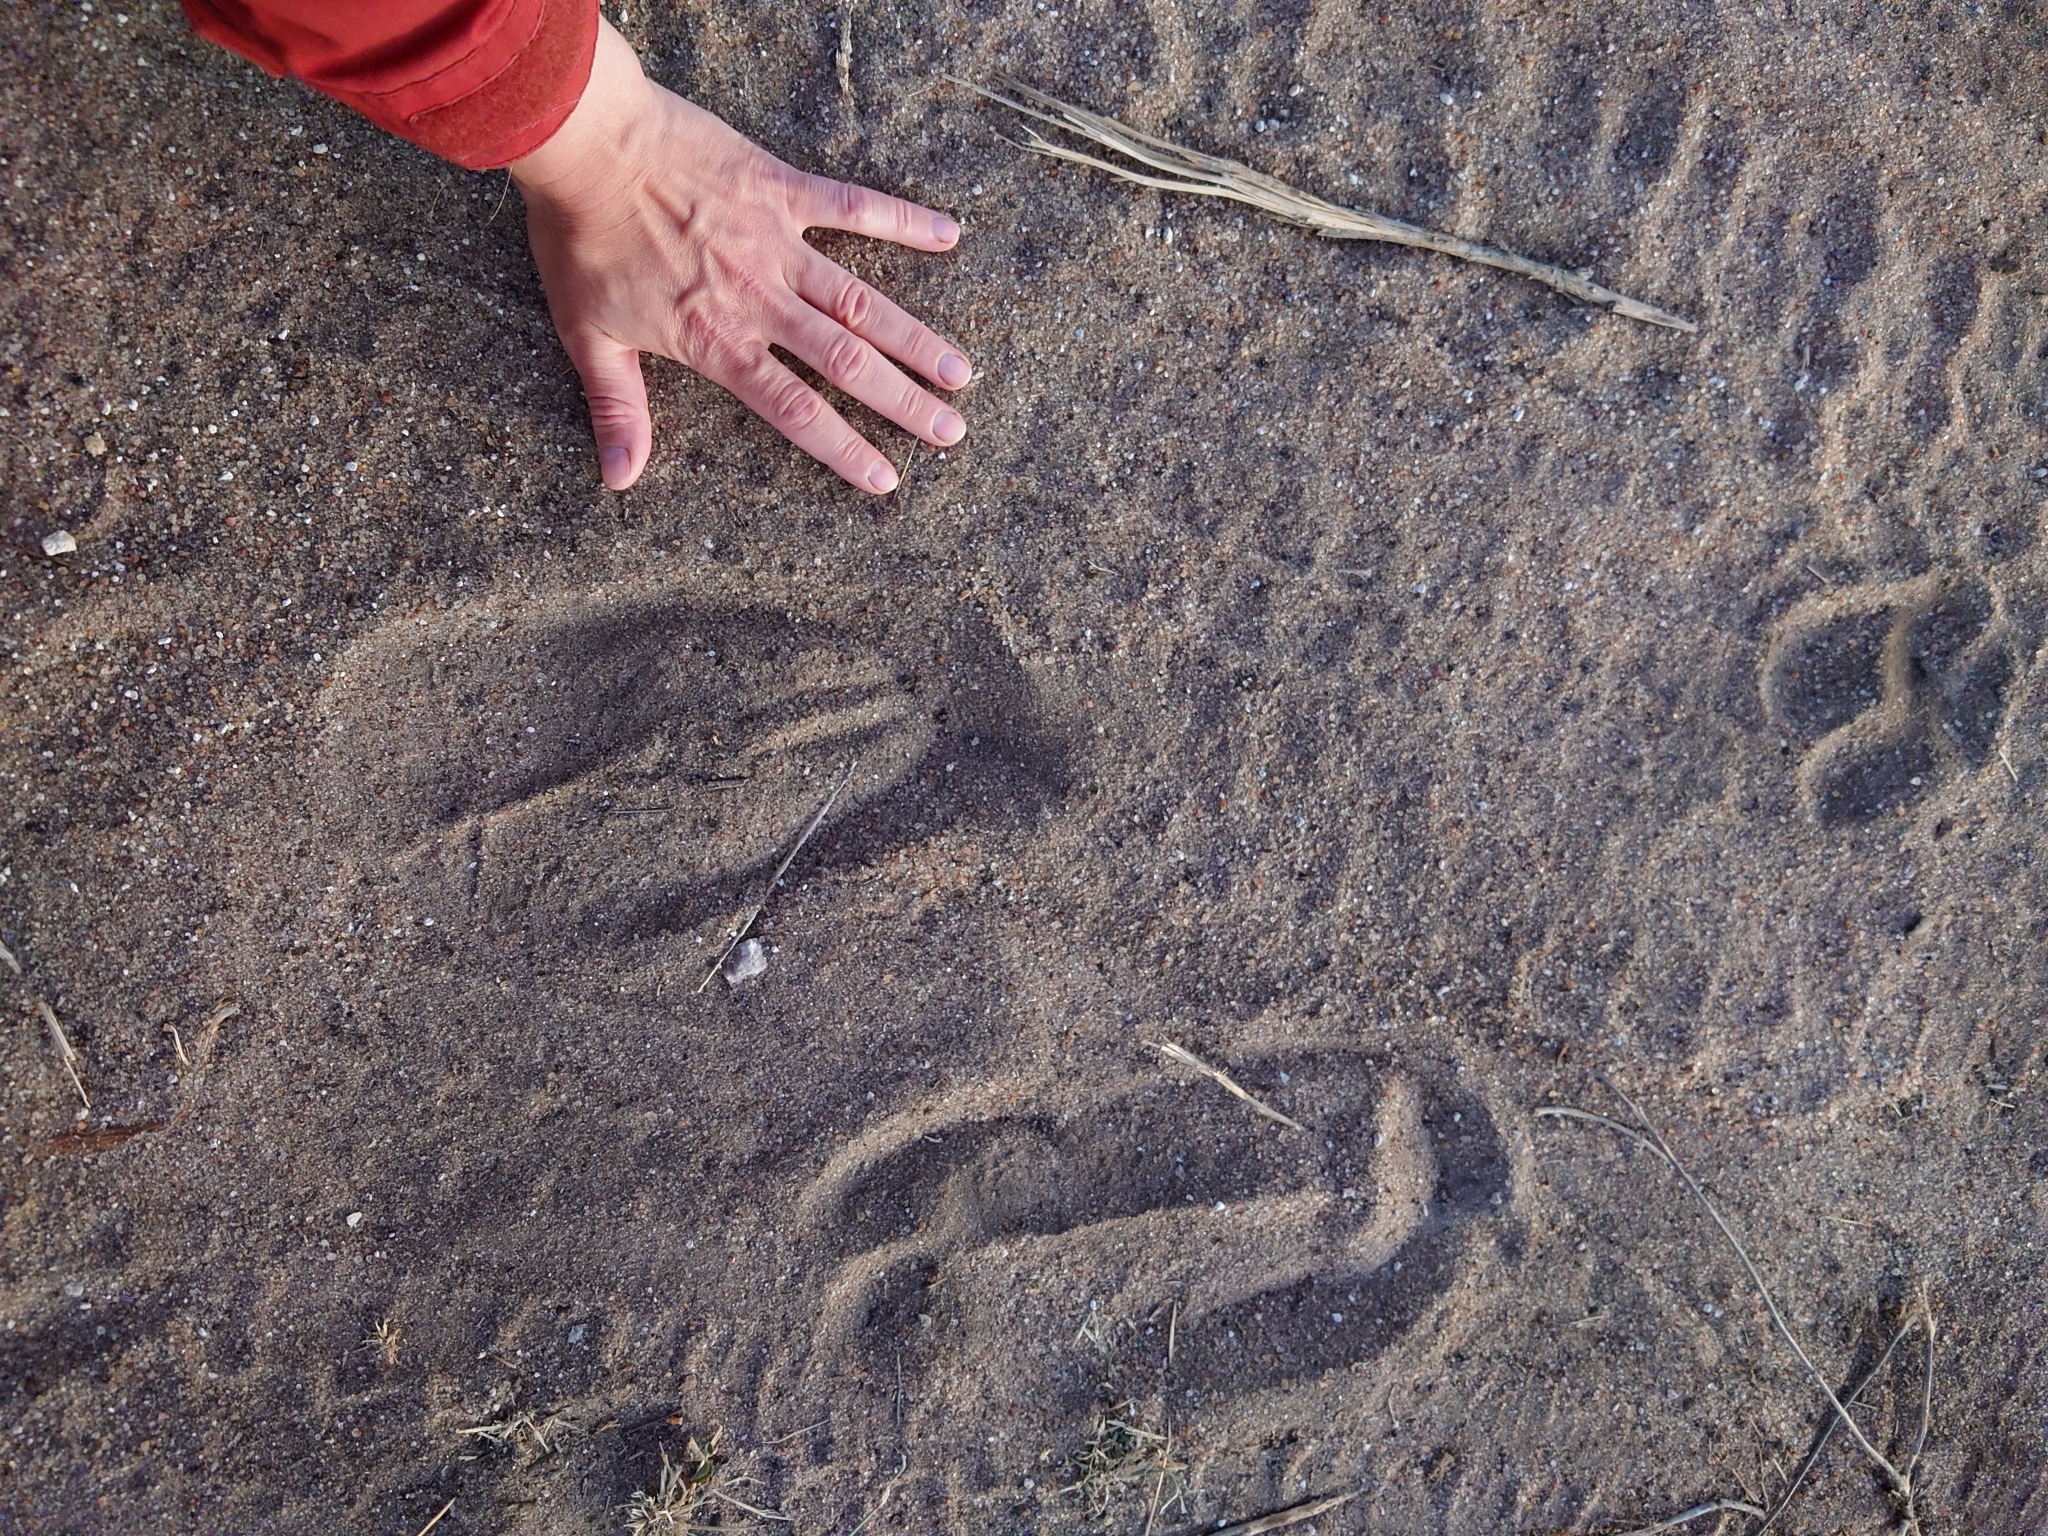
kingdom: Animalia
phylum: Chordata
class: Mammalia
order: Artiodactyla
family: Giraffidae
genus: Giraffa
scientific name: Giraffa giraffa
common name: Southern giraffe
